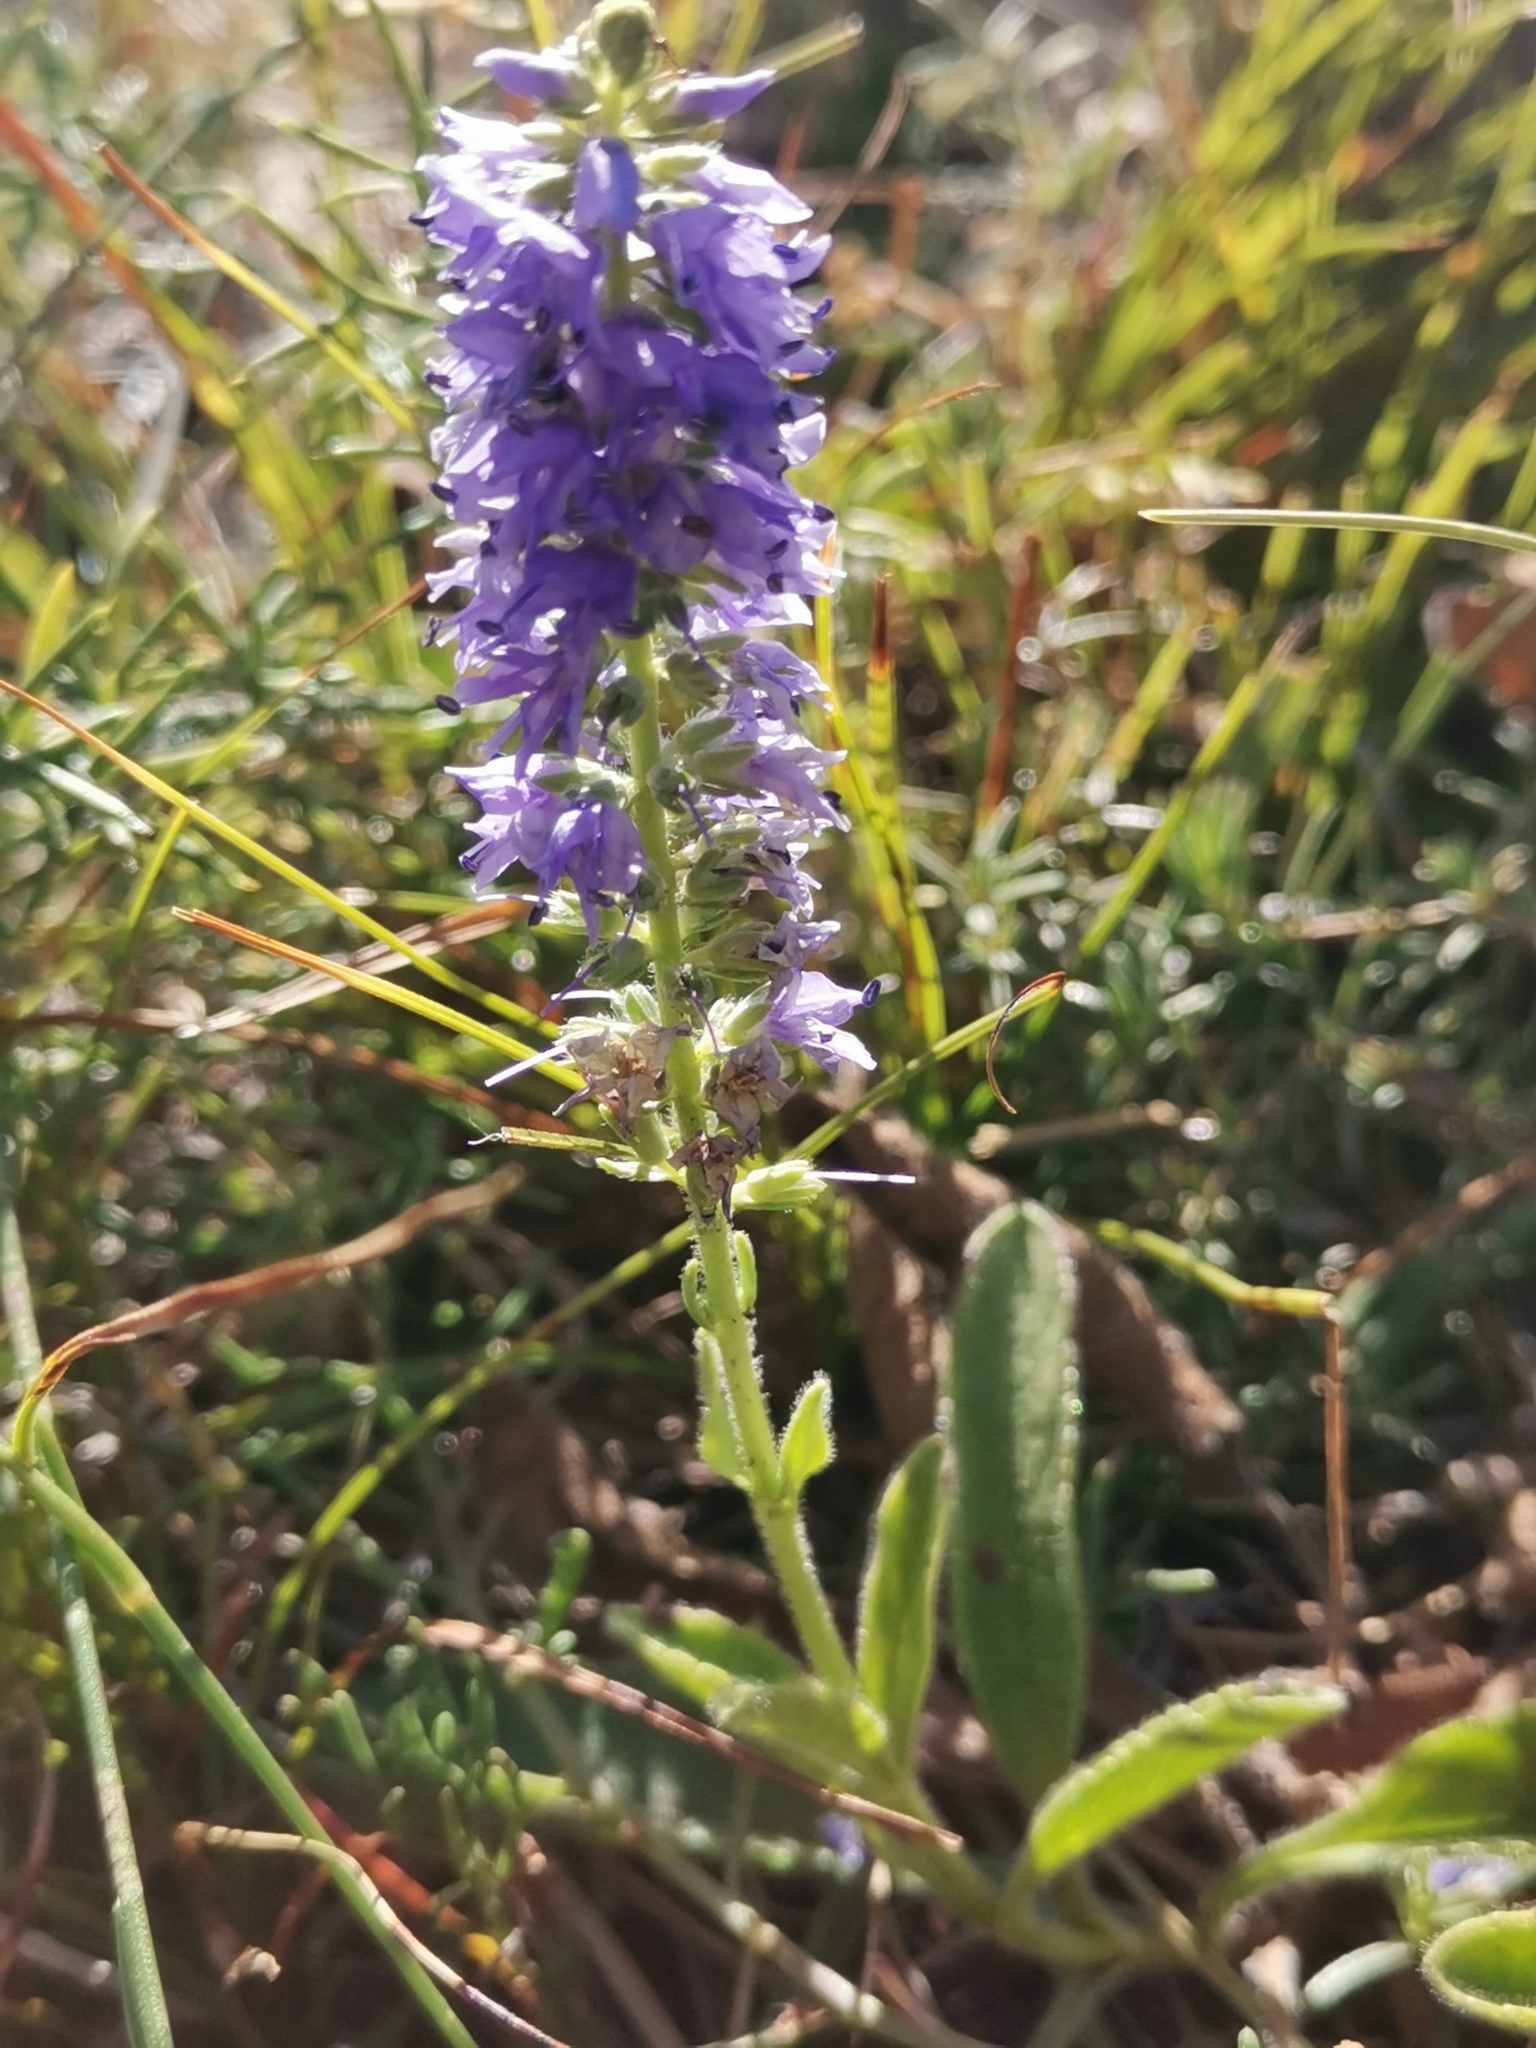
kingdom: Plantae
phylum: Tracheophyta
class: Magnoliopsida
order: Lamiales
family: Plantaginaceae
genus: Veronica
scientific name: Veronica barrelieri
